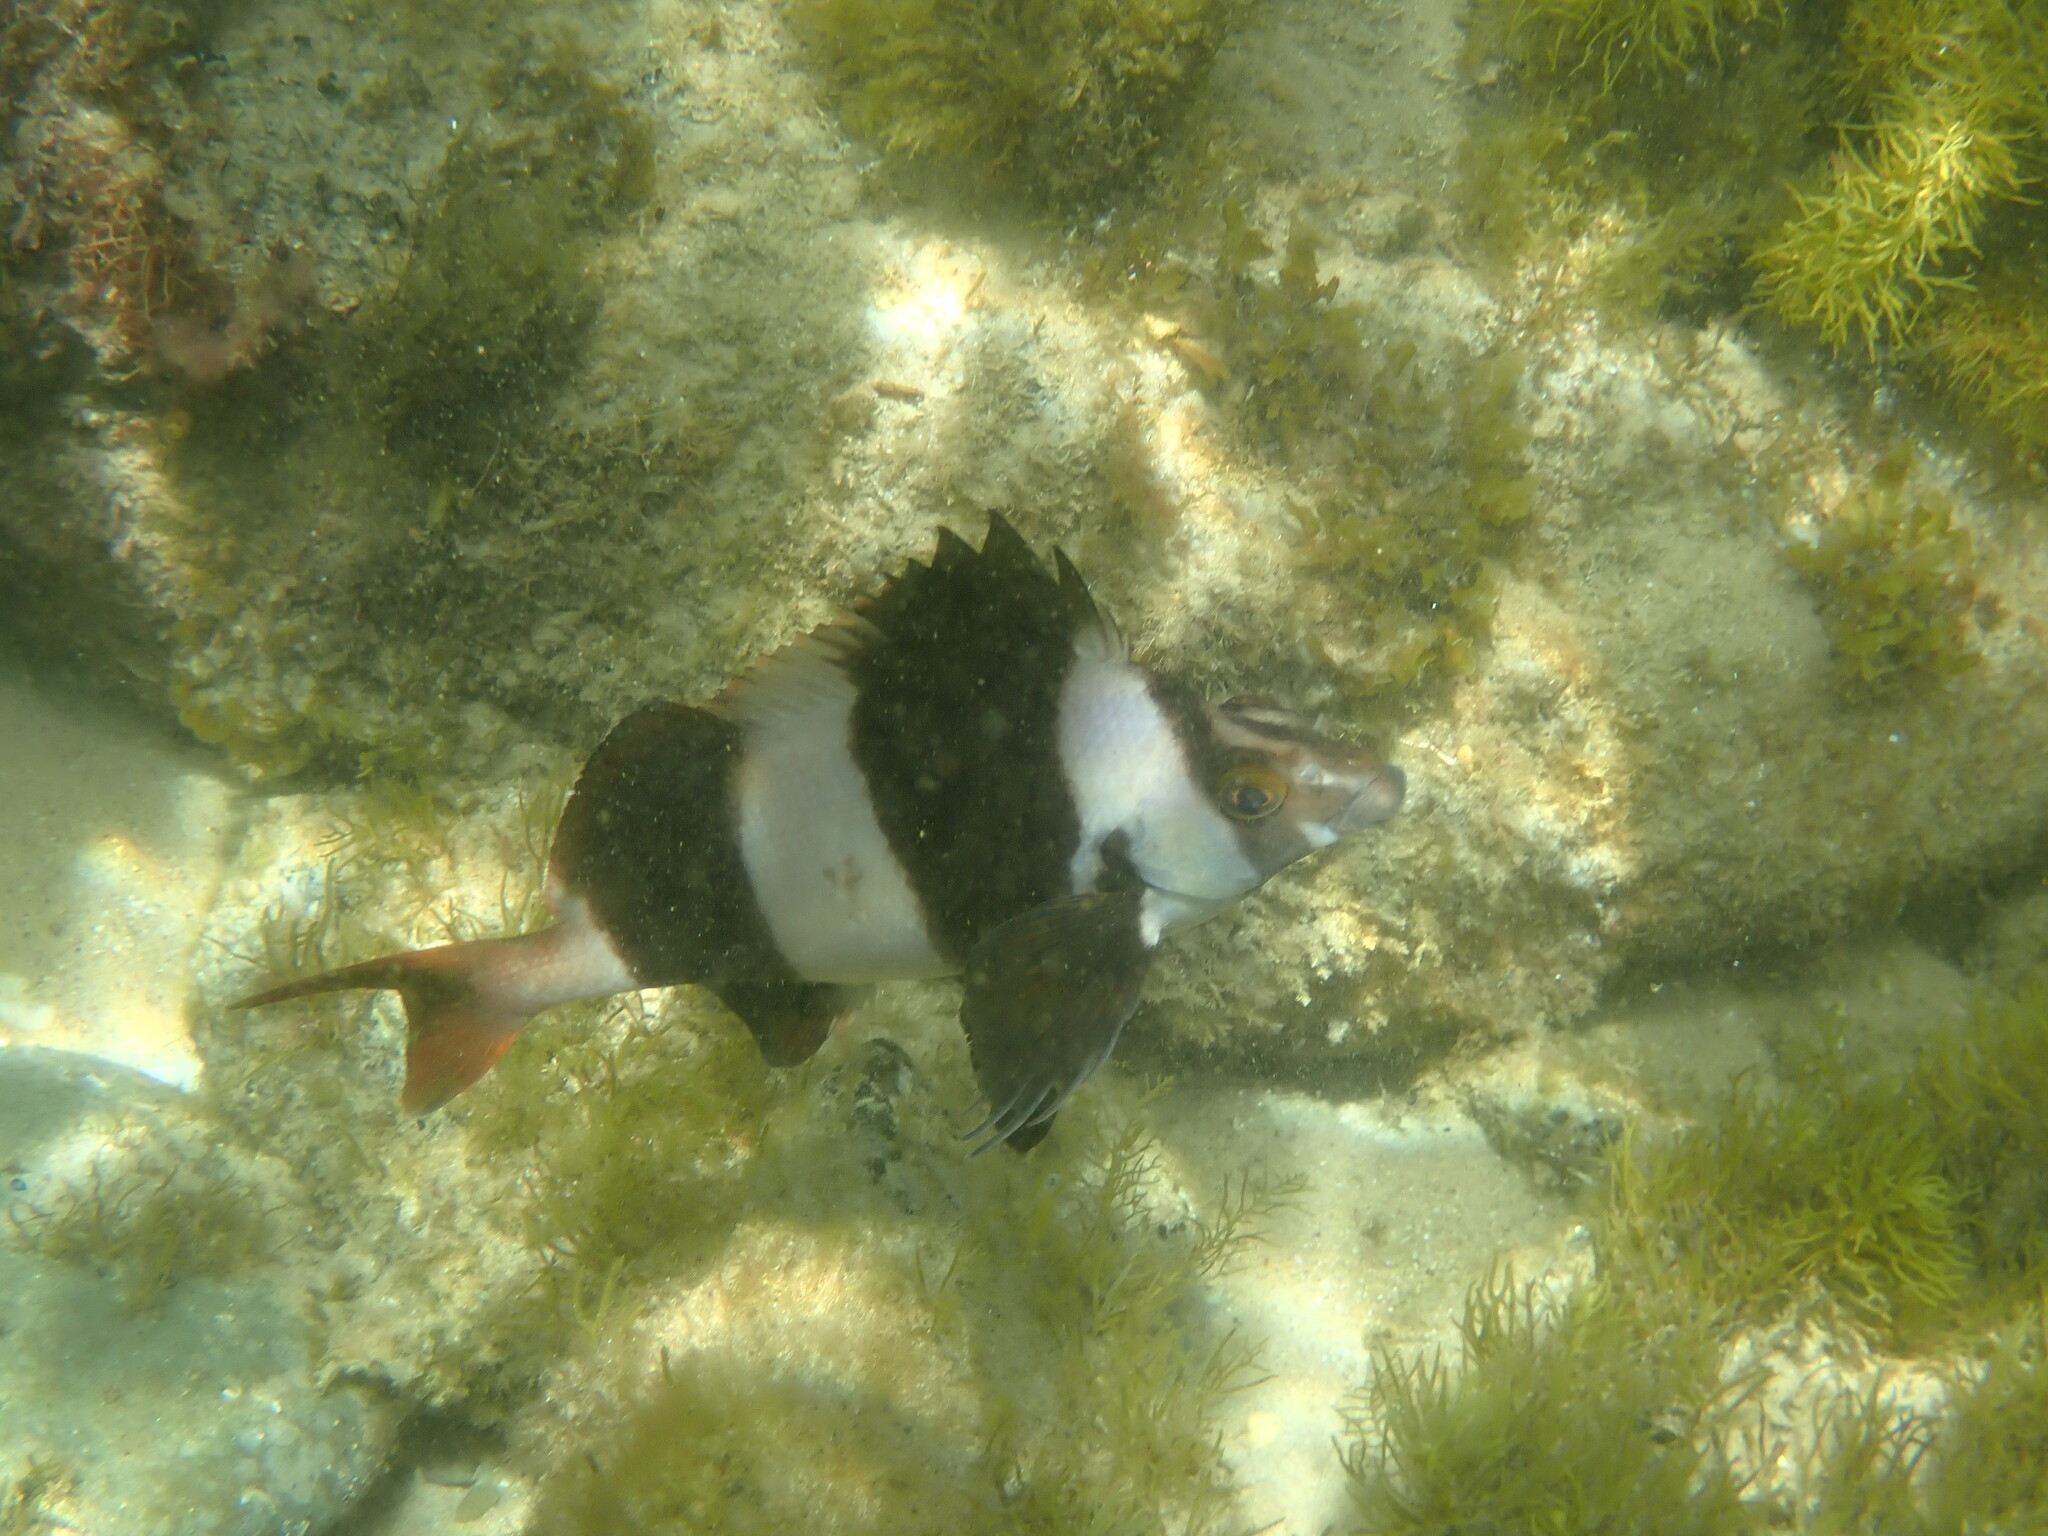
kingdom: Animalia
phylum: Chordata
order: Perciformes
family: Latridae
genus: Pseudogoniistius
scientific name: Pseudogoniistius nigripes
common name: Black-striped morwong
